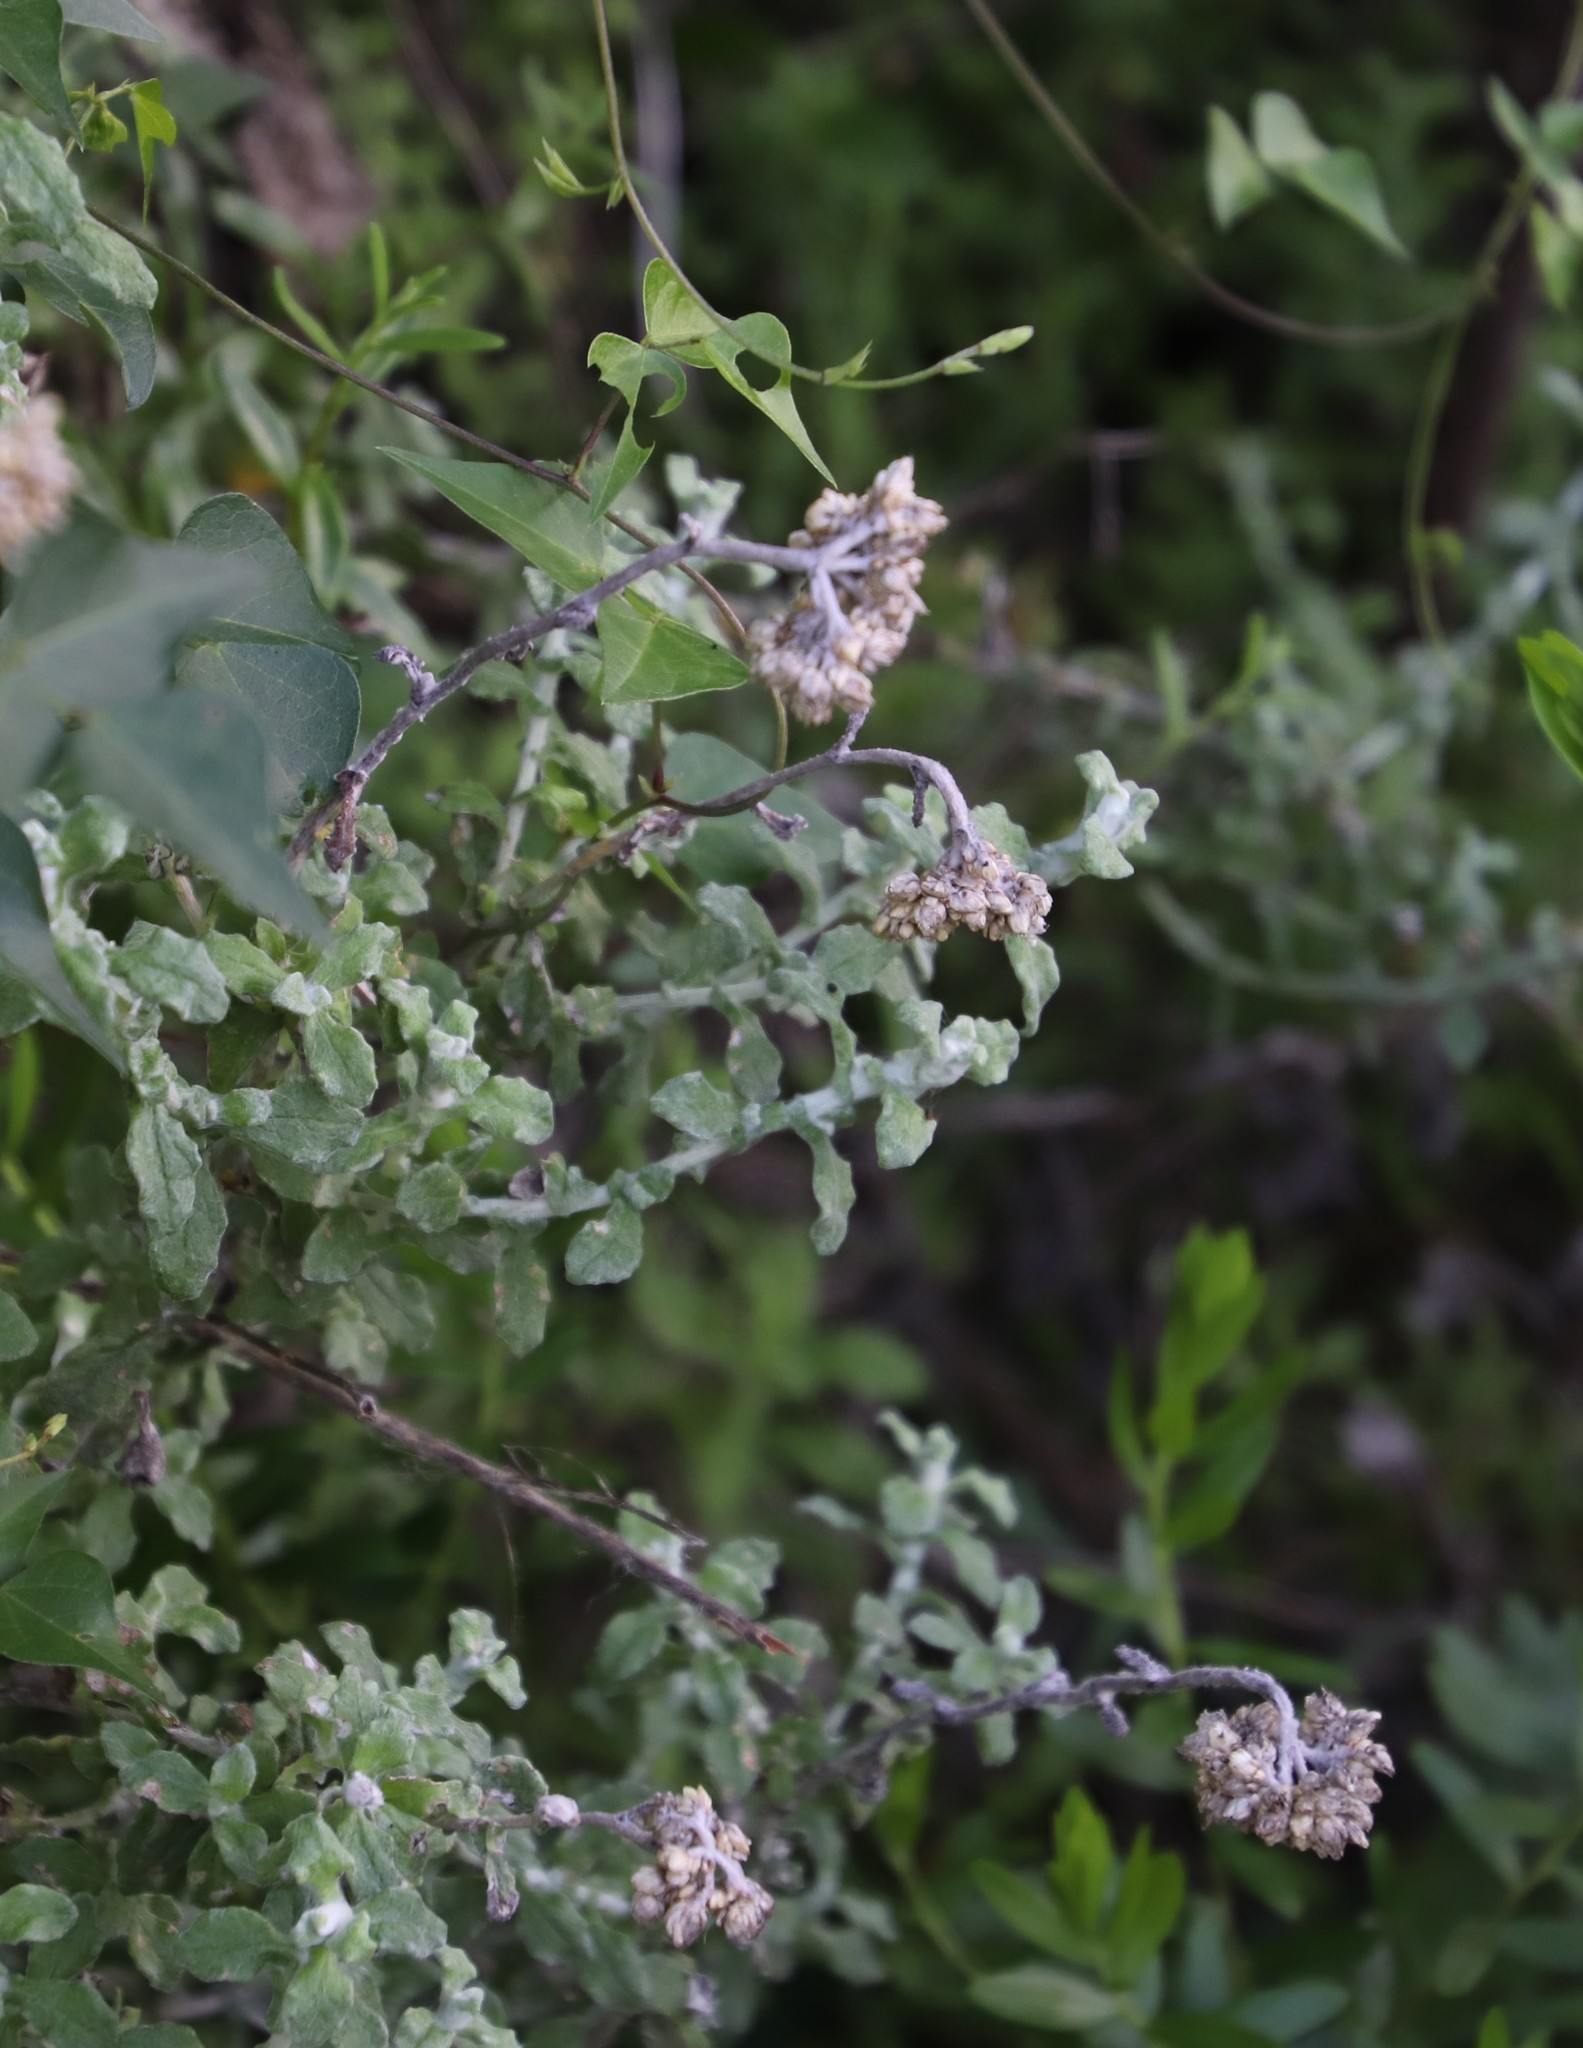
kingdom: Plantae
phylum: Tracheophyta
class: Magnoliopsida
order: Asterales
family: Asteraceae
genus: Helichrysum
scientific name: Helichrysum patulum
